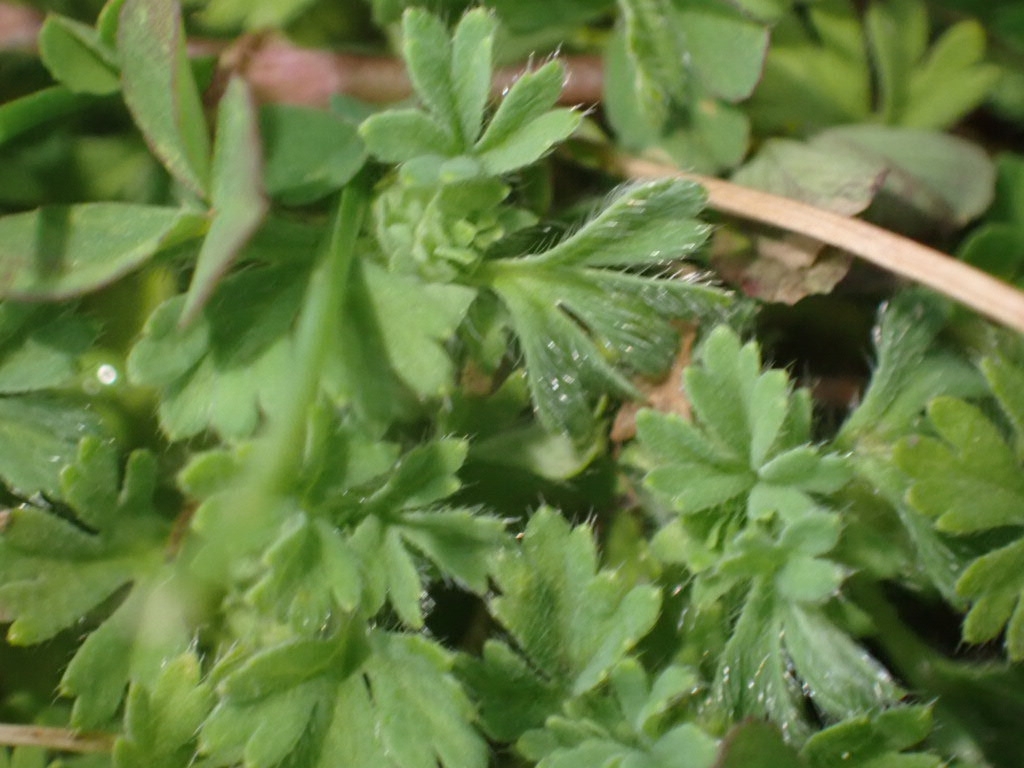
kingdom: Plantae
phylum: Tracheophyta
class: Magnoliopsida
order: Rosales
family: Rosaceae
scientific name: Rosaceae
